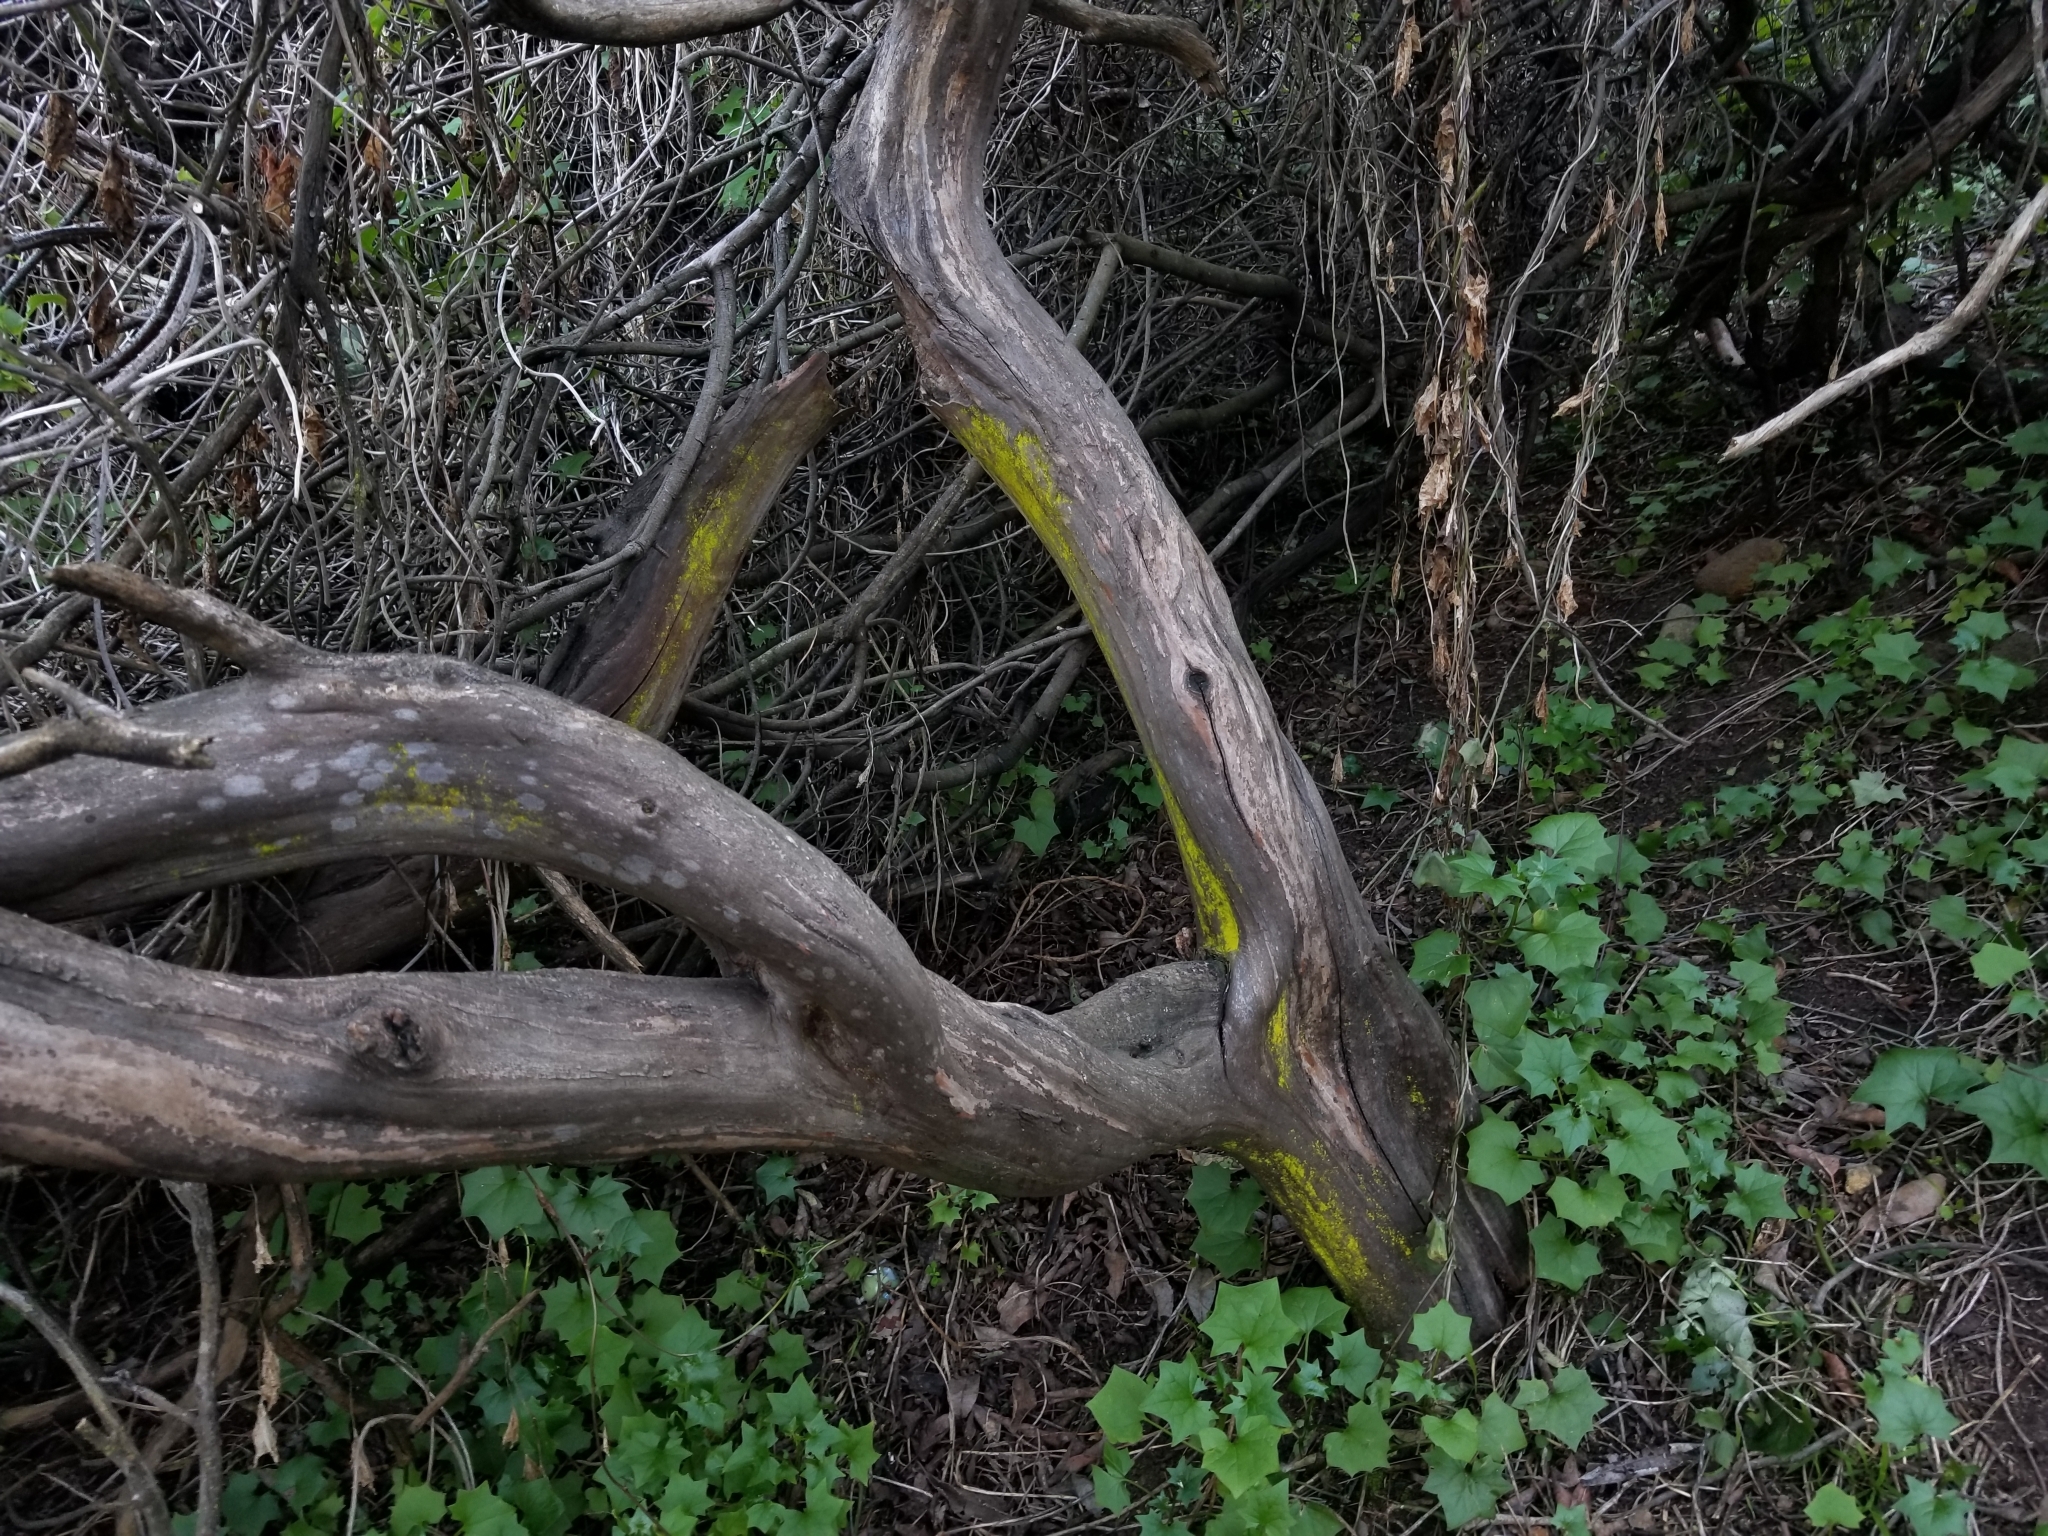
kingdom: Plantae
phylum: Tracheophyta
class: Magnoliopsida
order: Ericales
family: Ericaceae
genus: Arctostaphylos
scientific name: Arctostaphylos bicolor
